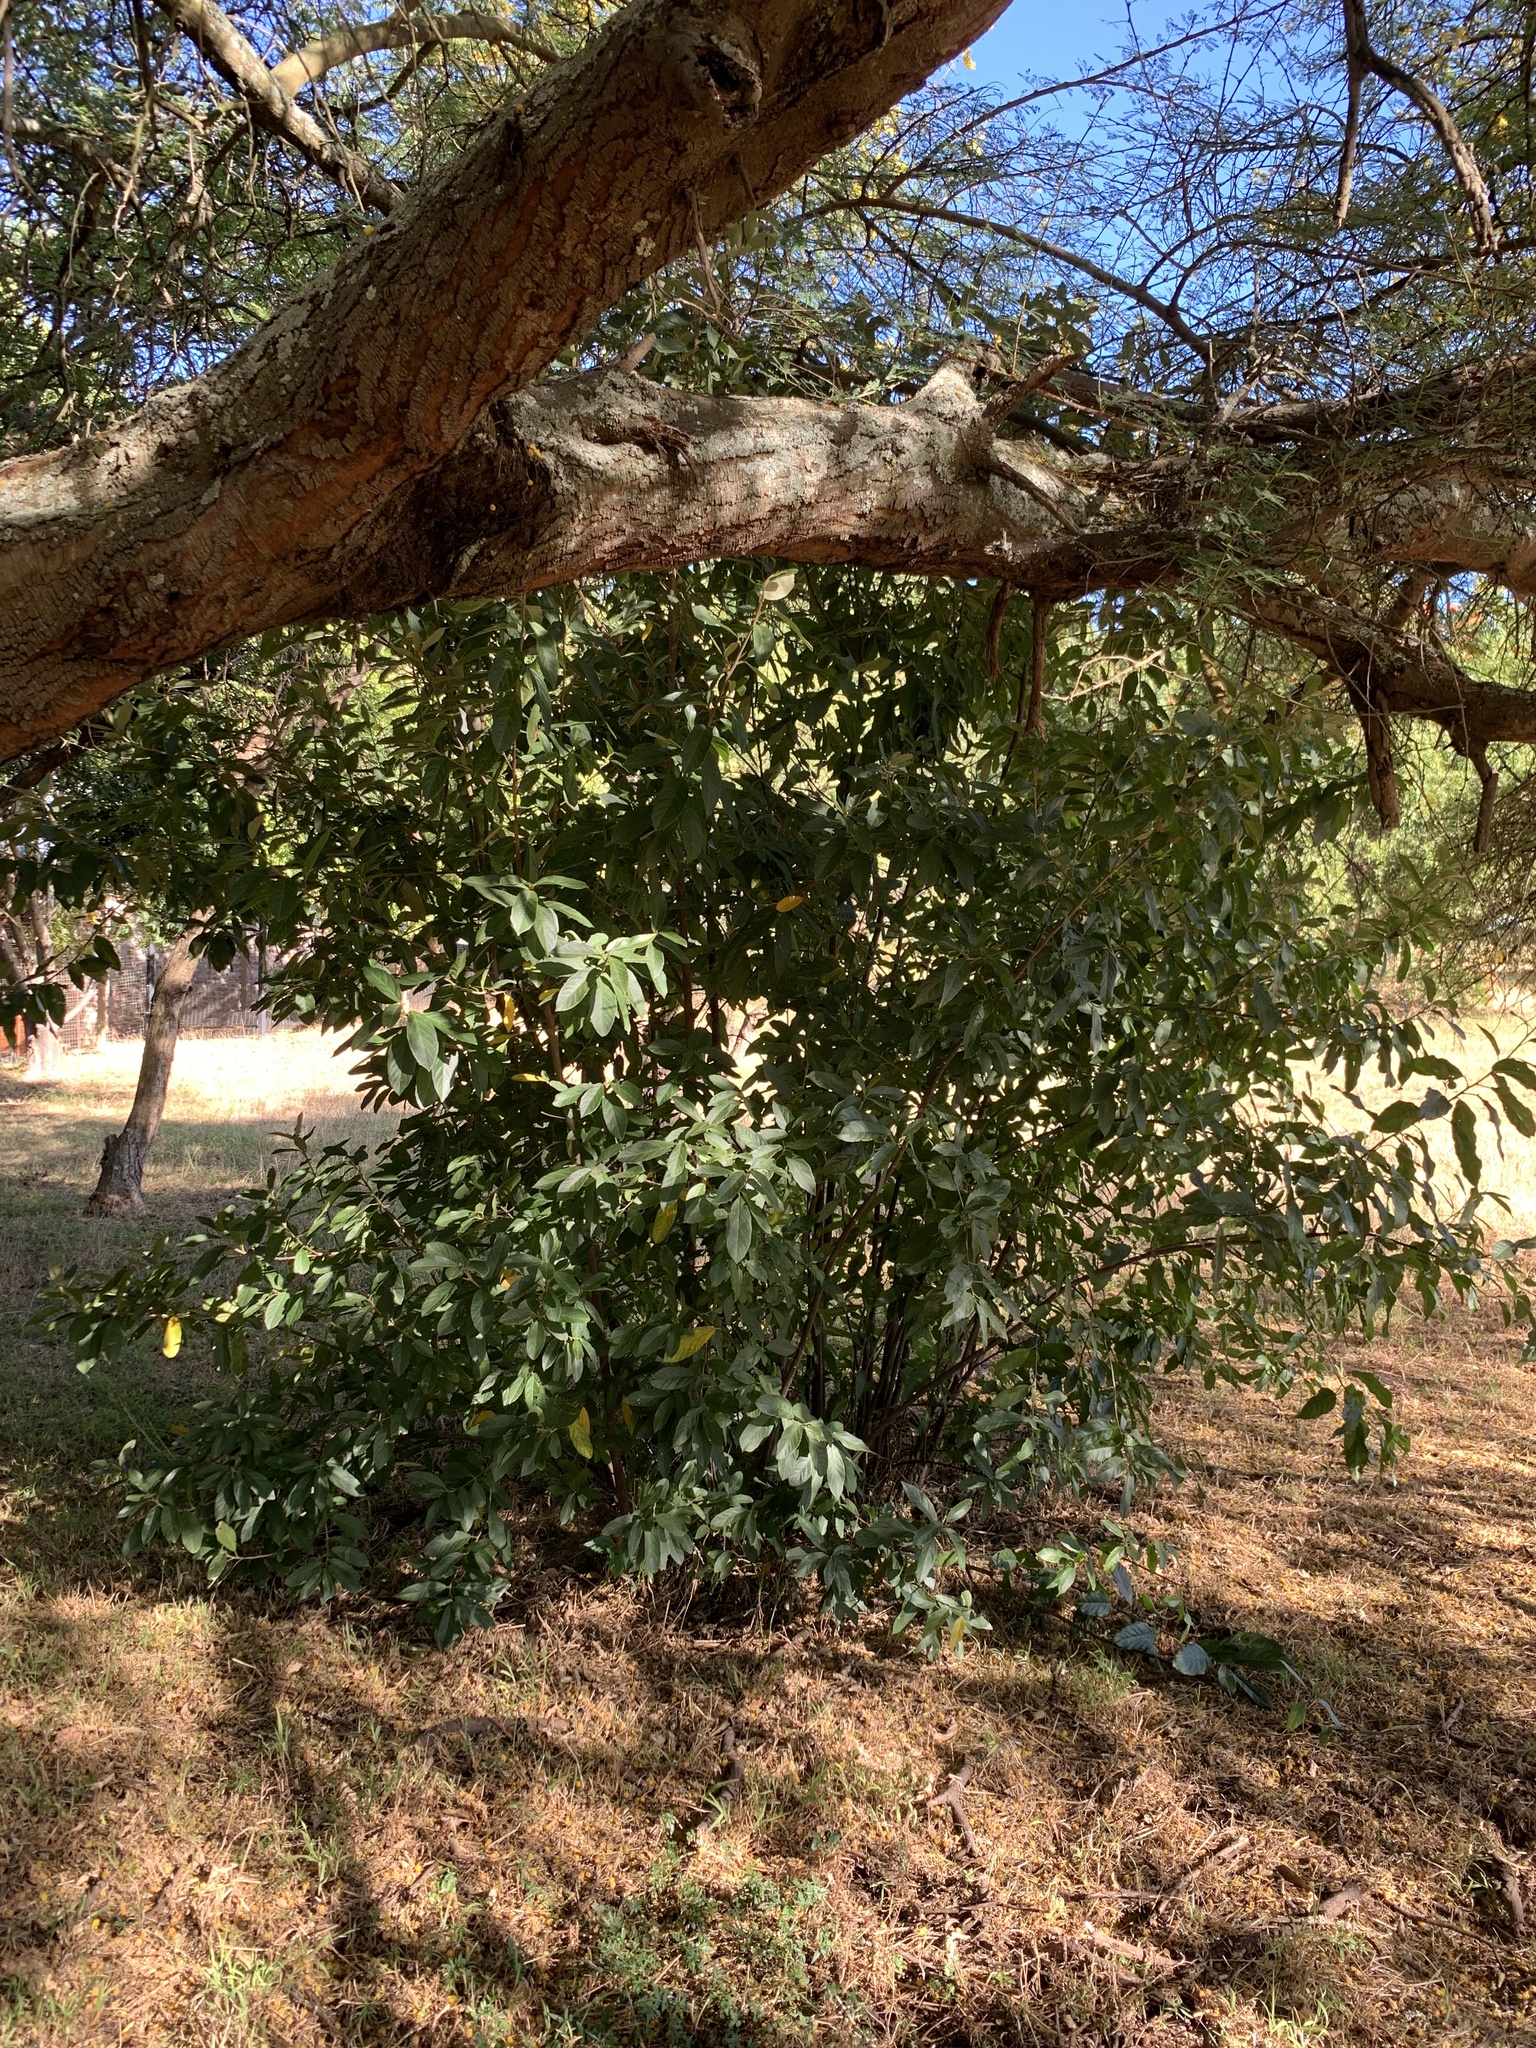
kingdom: Plantae
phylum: Tracheophyta
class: Magnoliopsida
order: Malpighiales
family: Achariaceae
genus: Kiggelaria
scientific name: Kiggelaria africana
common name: Wild peach
